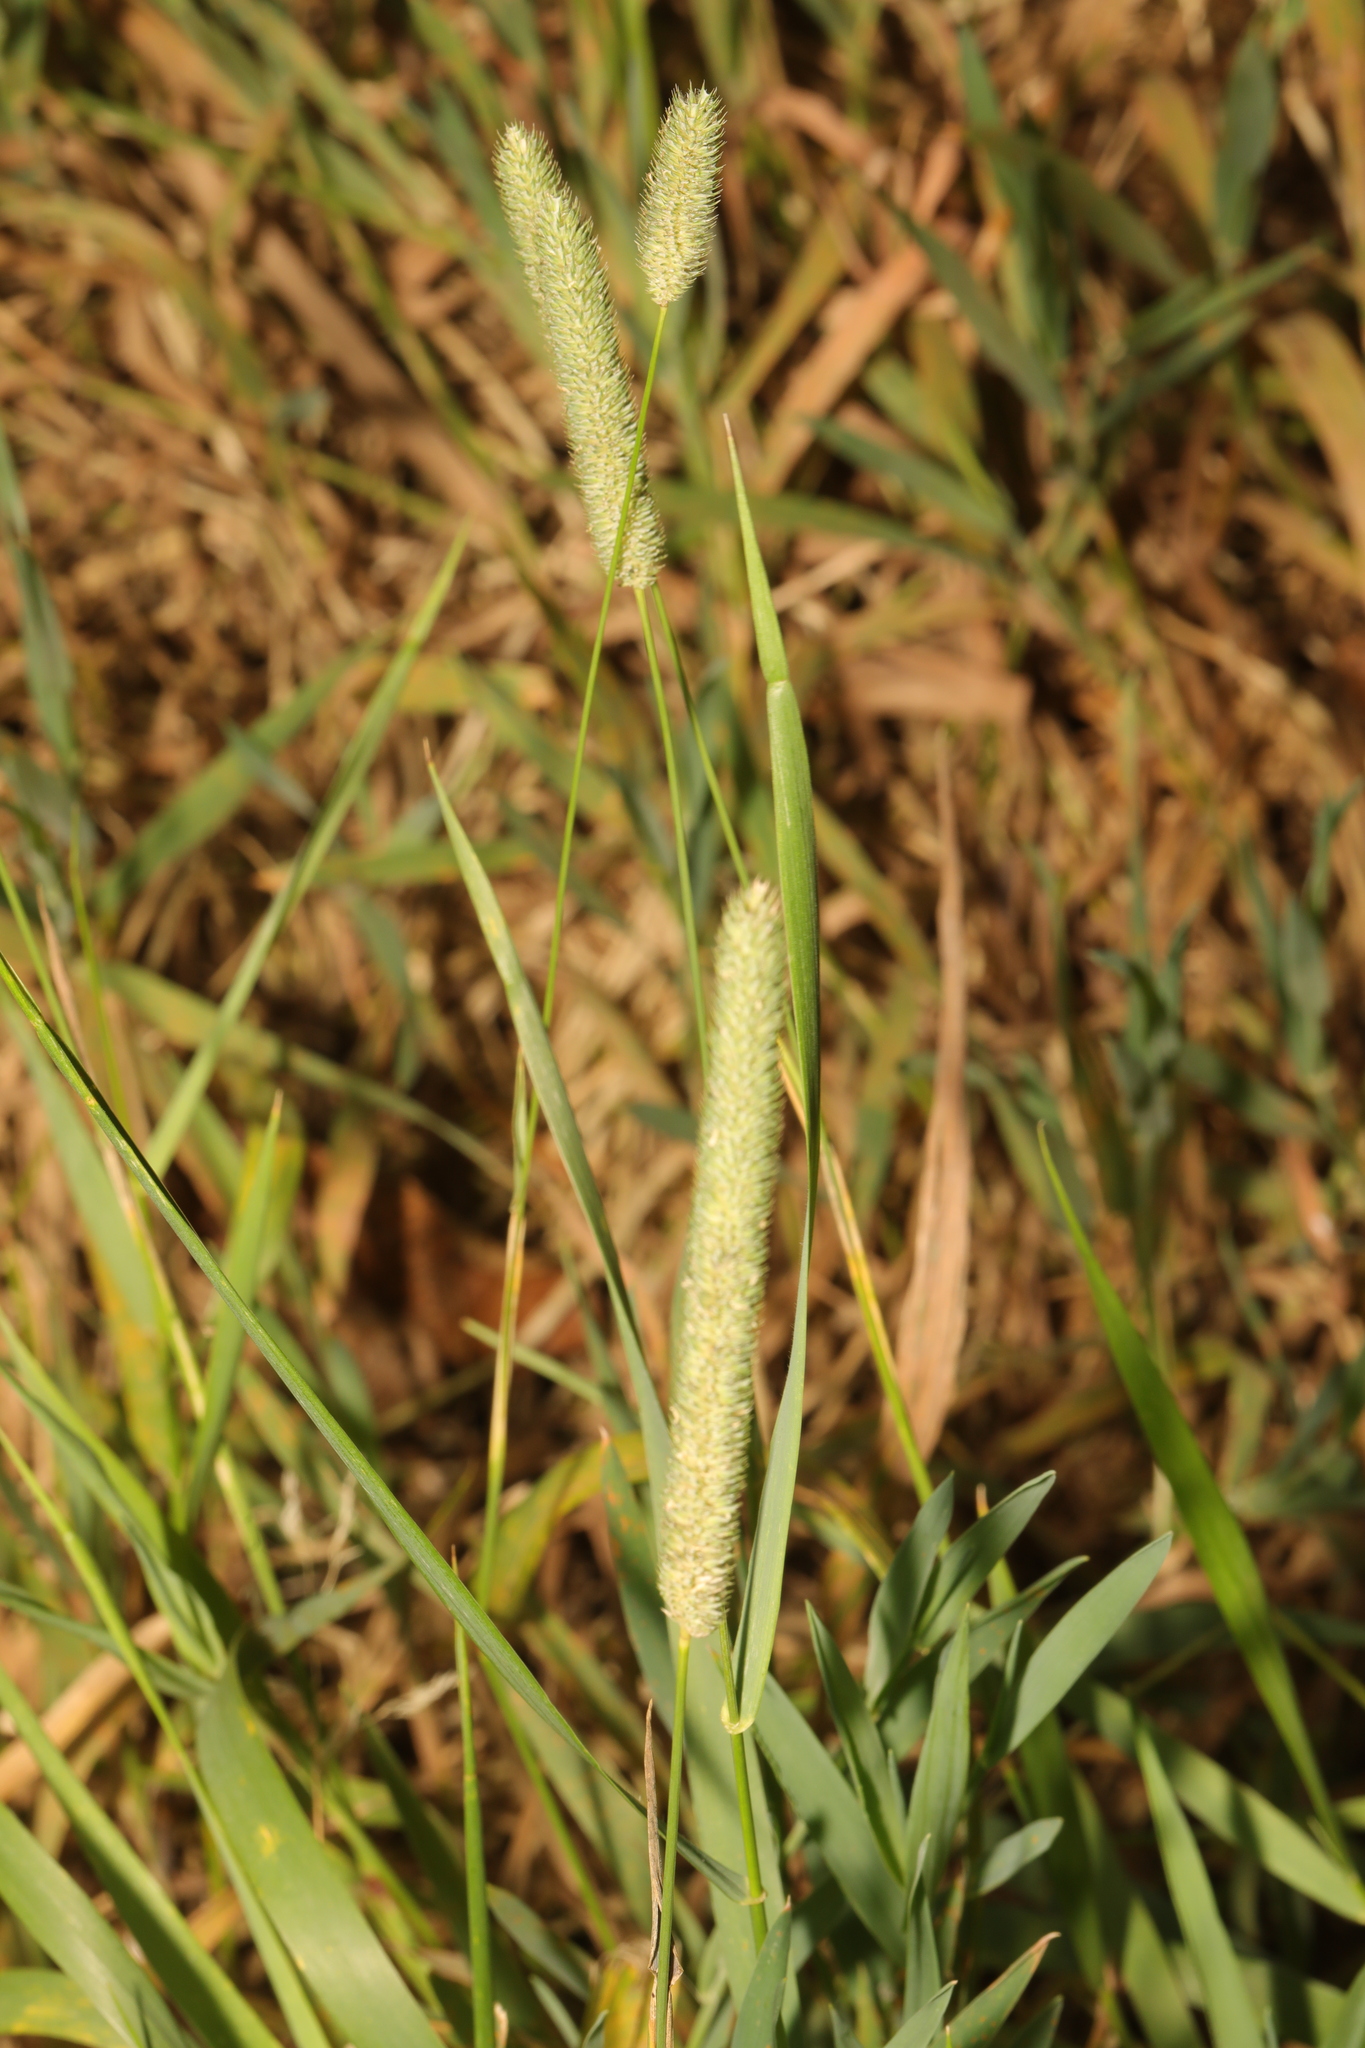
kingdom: Plantae
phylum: Tracheophyta
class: Liliopsida
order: Poales
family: Poaceae
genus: Phleum
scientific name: Phleum pratense
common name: Timothy grass
